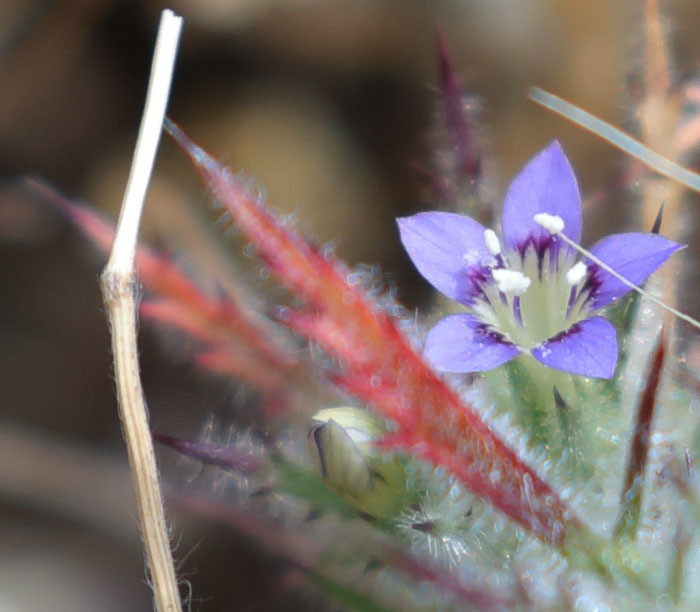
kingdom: Plantae
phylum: Tracheophyta
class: Magnoliopsida
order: Ericales
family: Polemoniaceae
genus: Navarretia
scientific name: Navarretia pubescens
